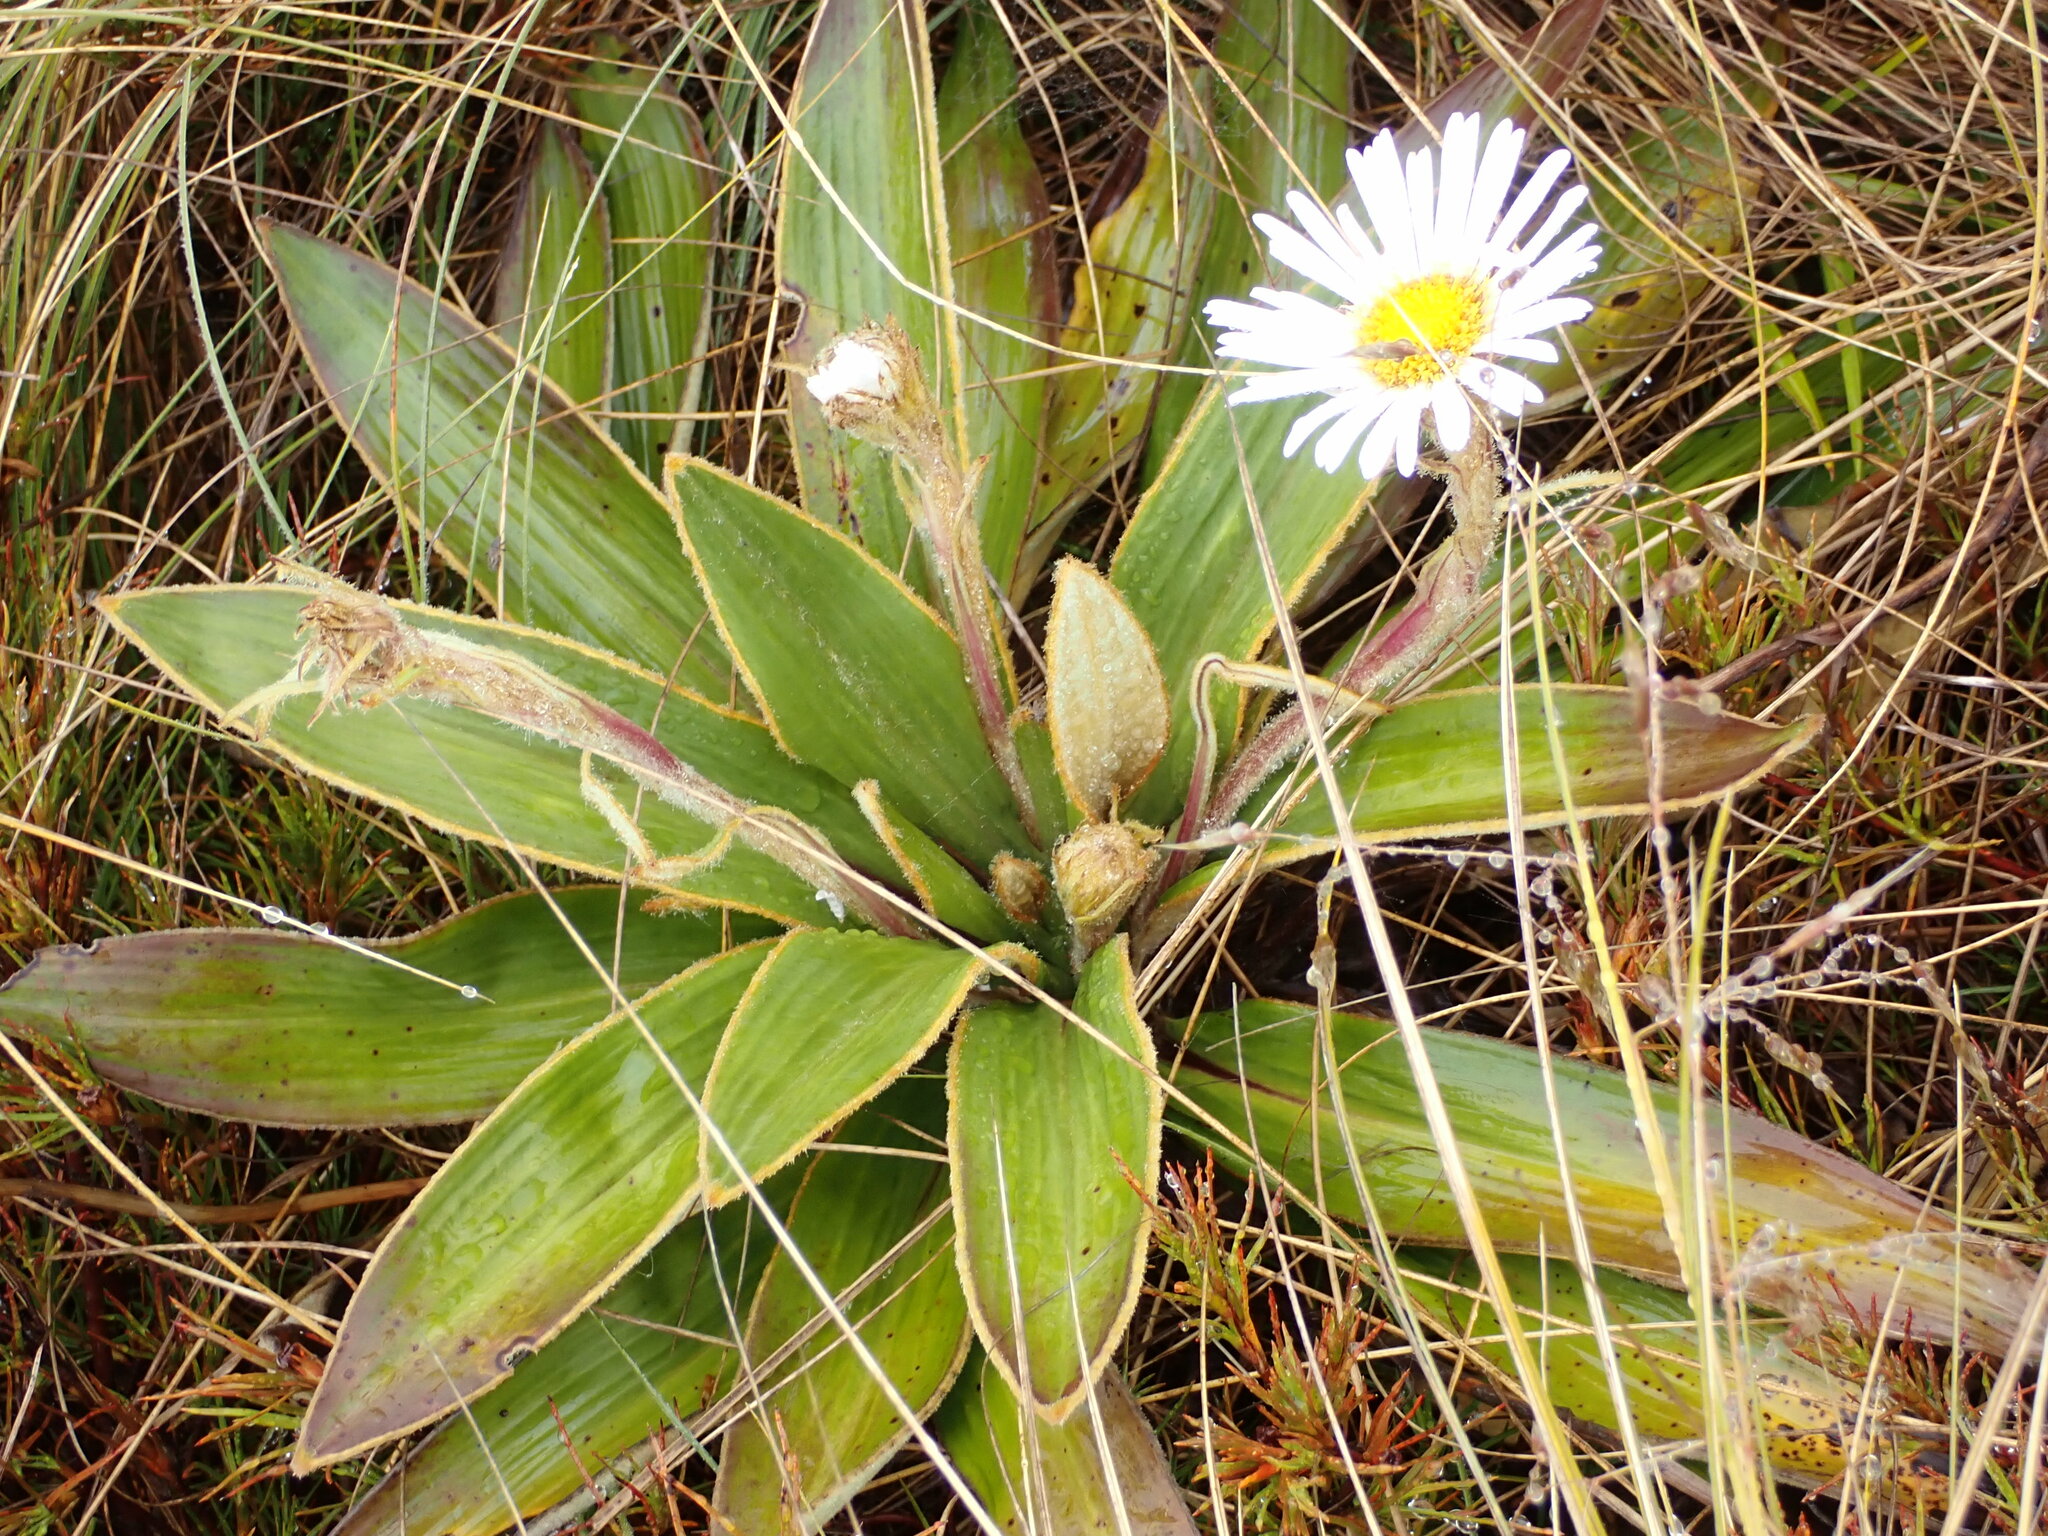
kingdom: Plantae
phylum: Tracheophyta
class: Magnoliopsida
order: Asterales
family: Asteraceae
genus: Celmisia
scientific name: Celmisia verbascifolia
